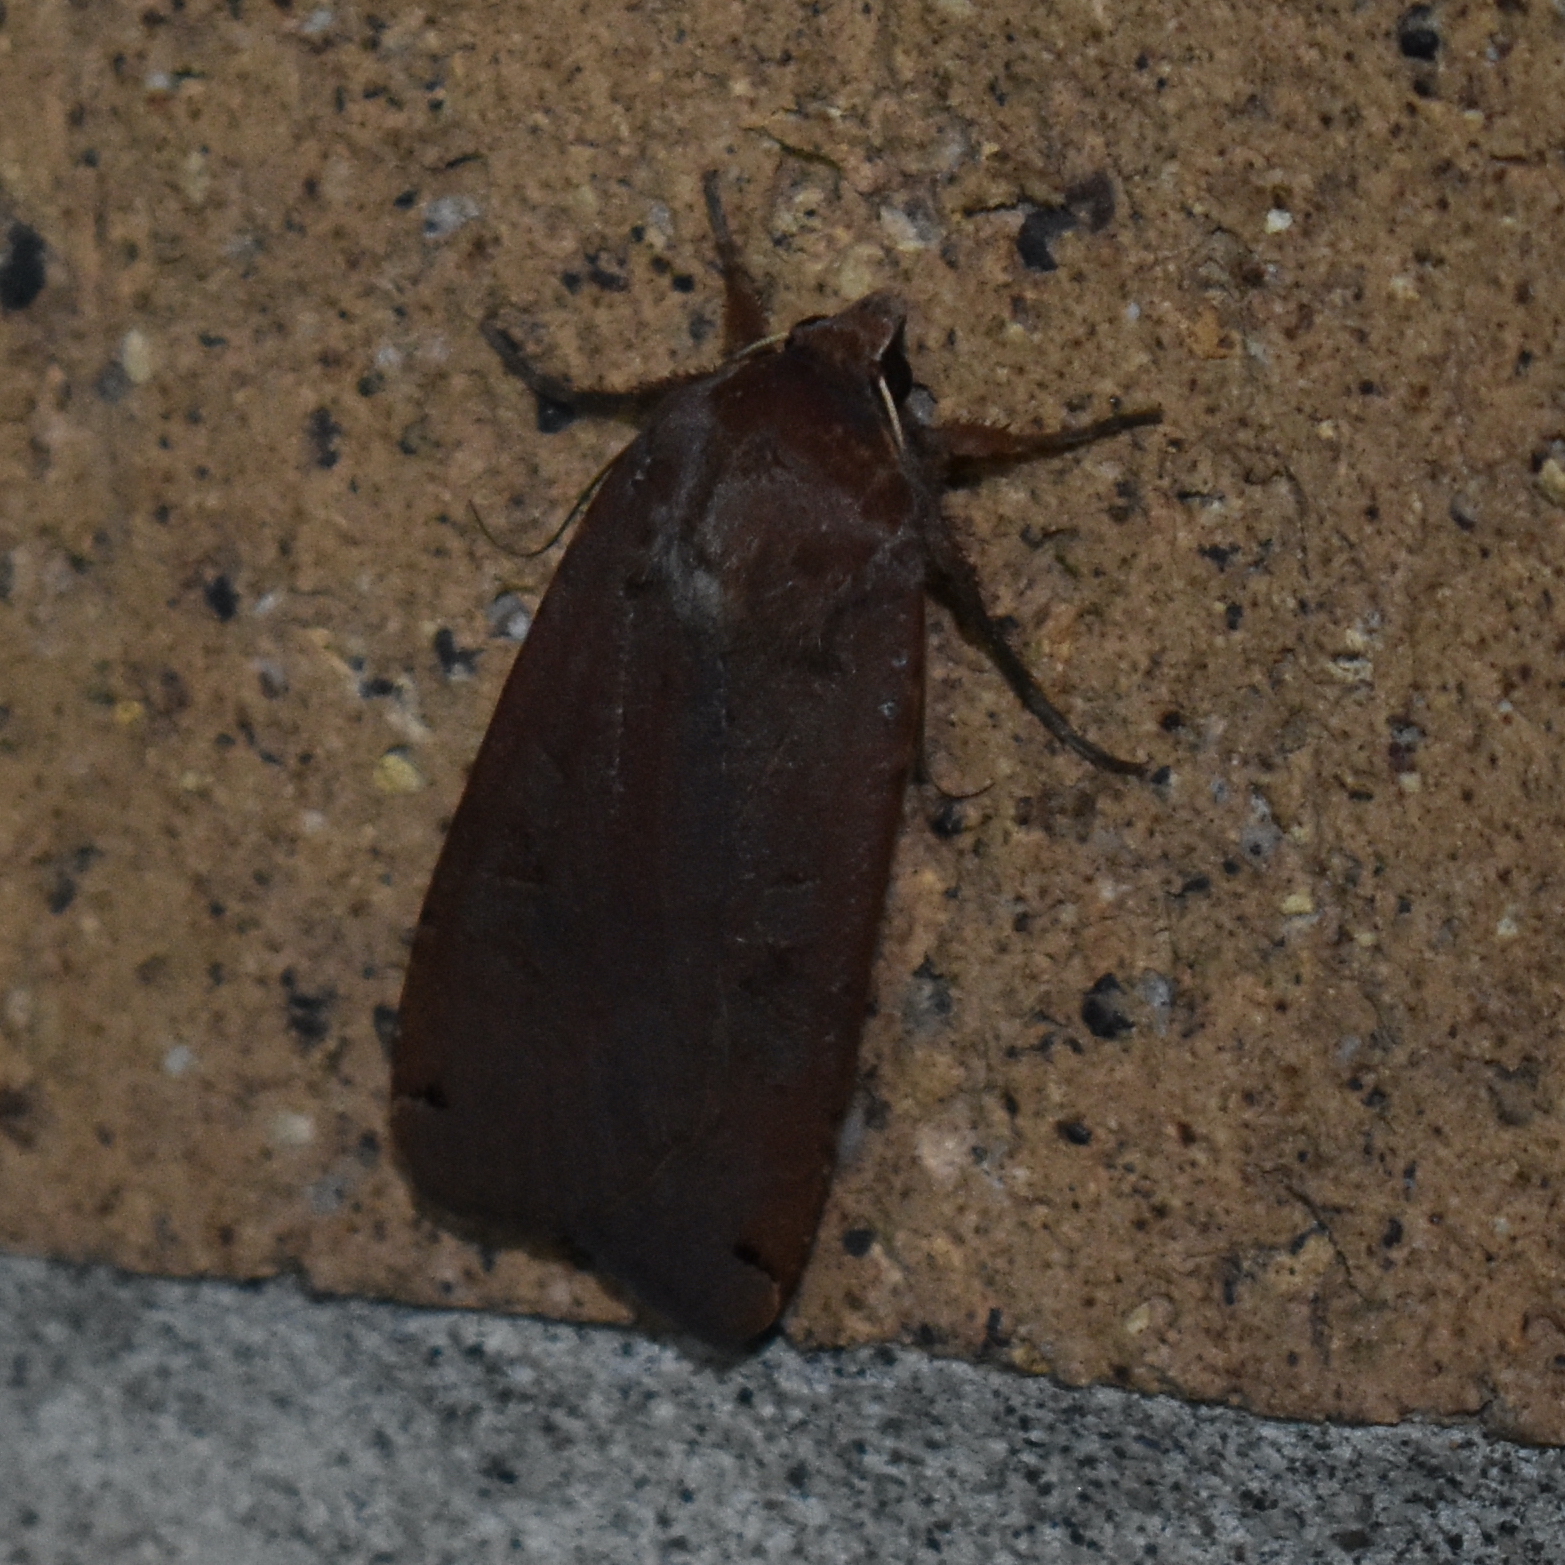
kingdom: Animalia
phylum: Arthropoda
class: Insecta
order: Lepidoptera
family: Noctuidae
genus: Noctua
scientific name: Noctua pronuba
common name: Large yellow underwing
